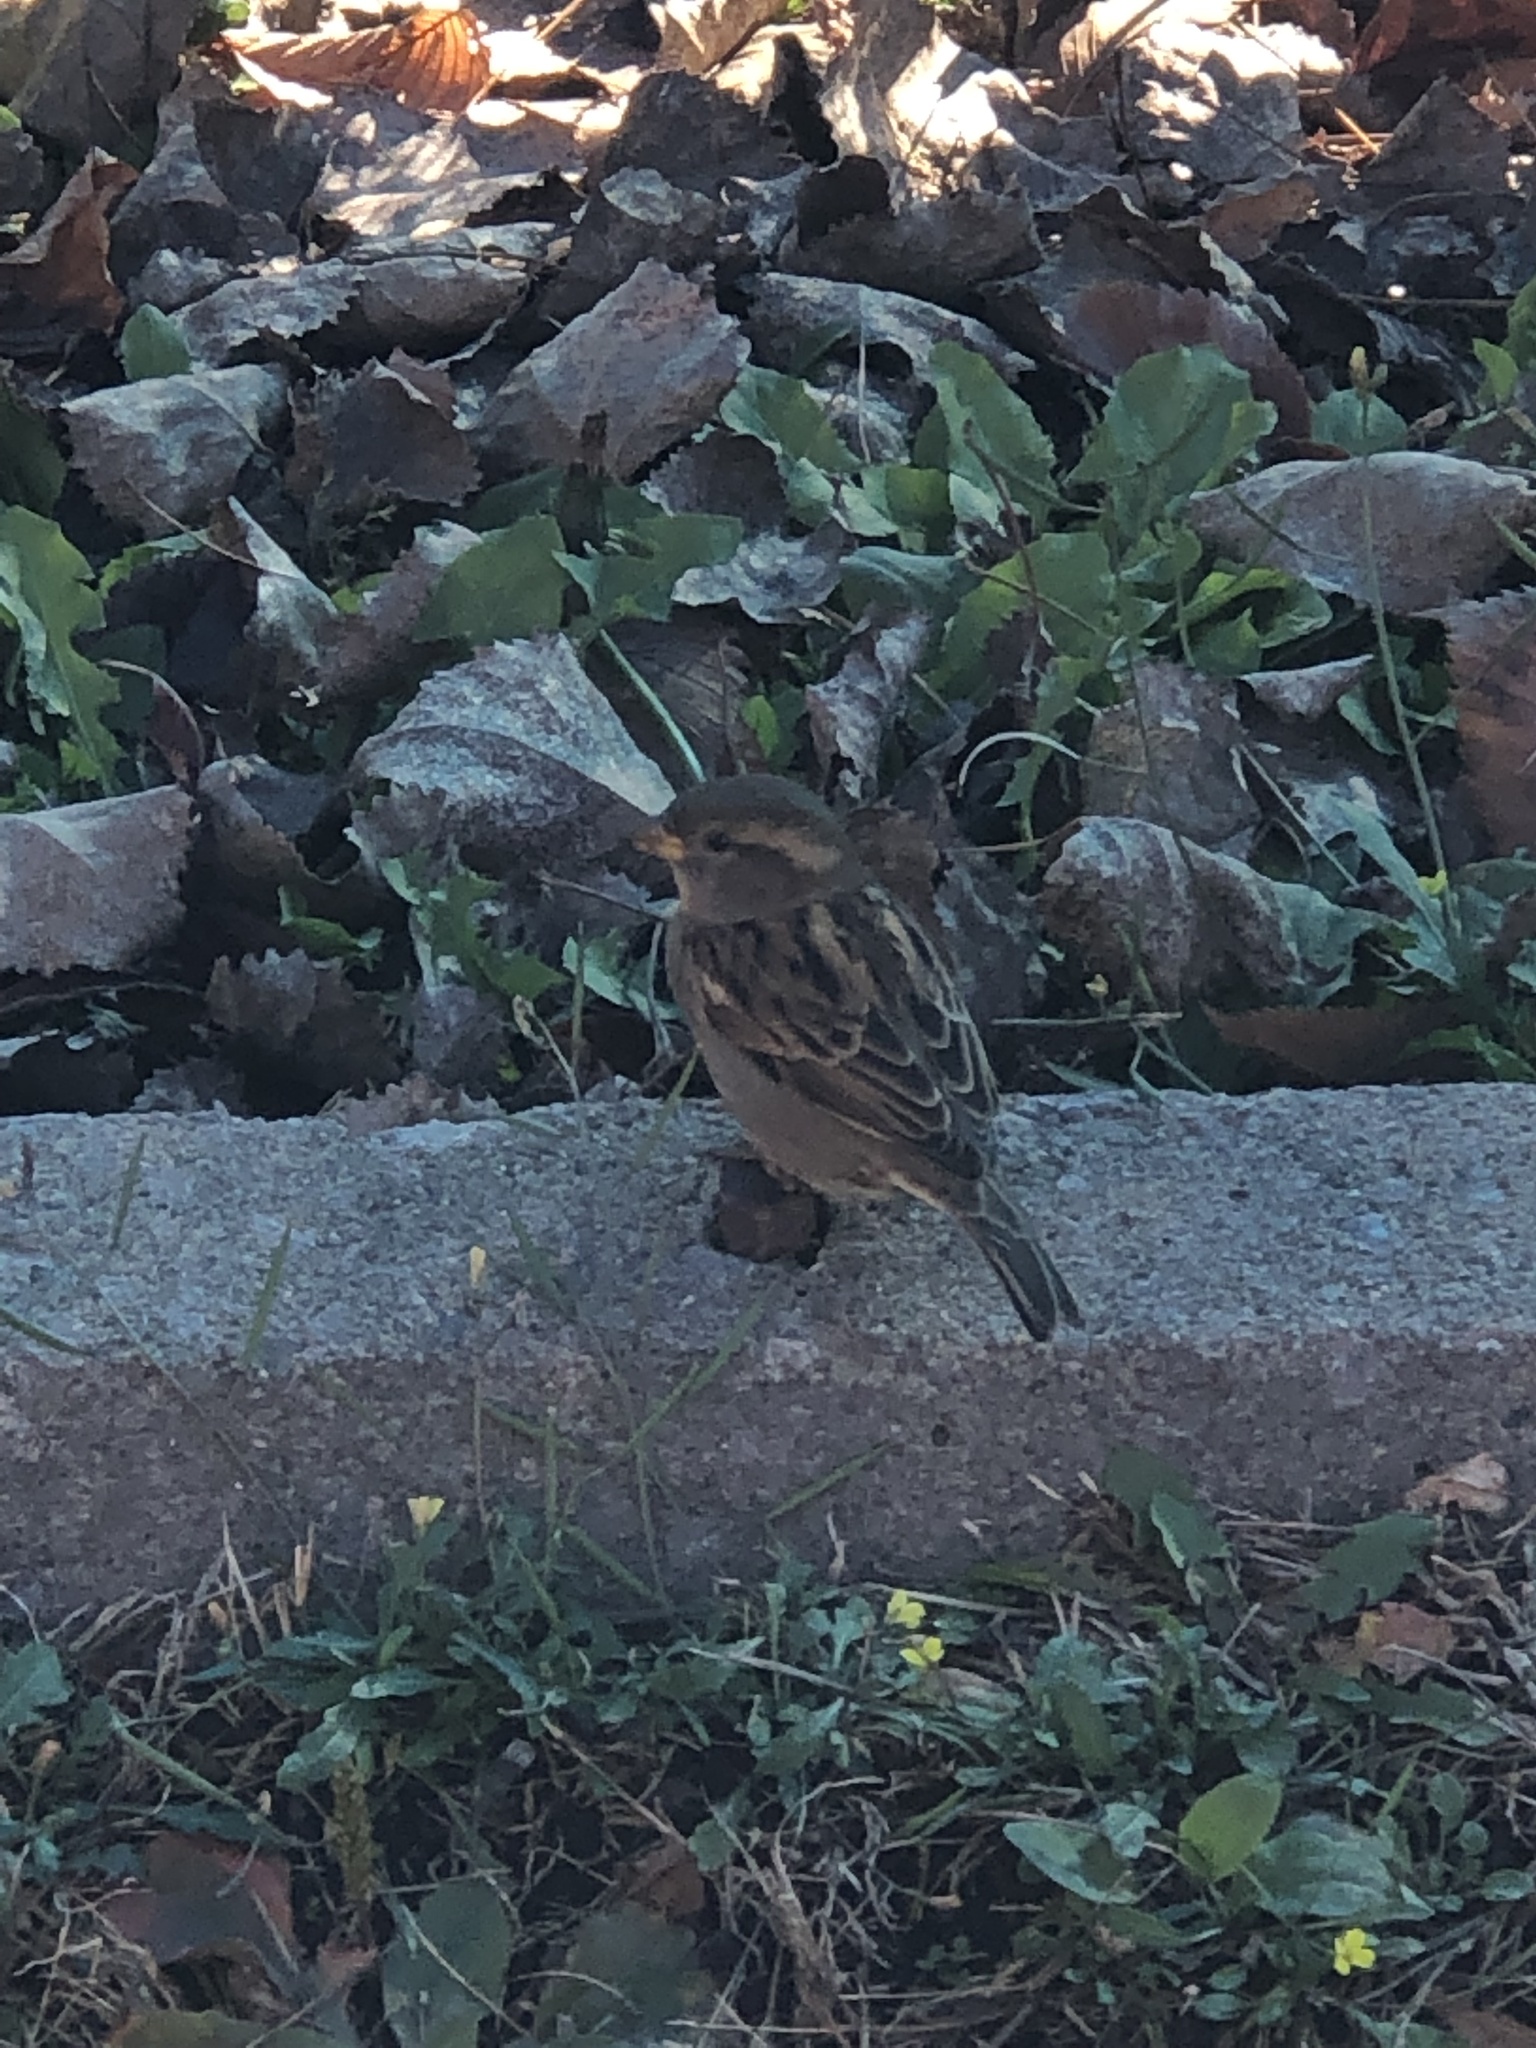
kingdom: Animalia
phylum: Chordata
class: Aves
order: Passeriformes
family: Passeridae
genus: Passer
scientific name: Passer domesticus
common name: House sparrow
